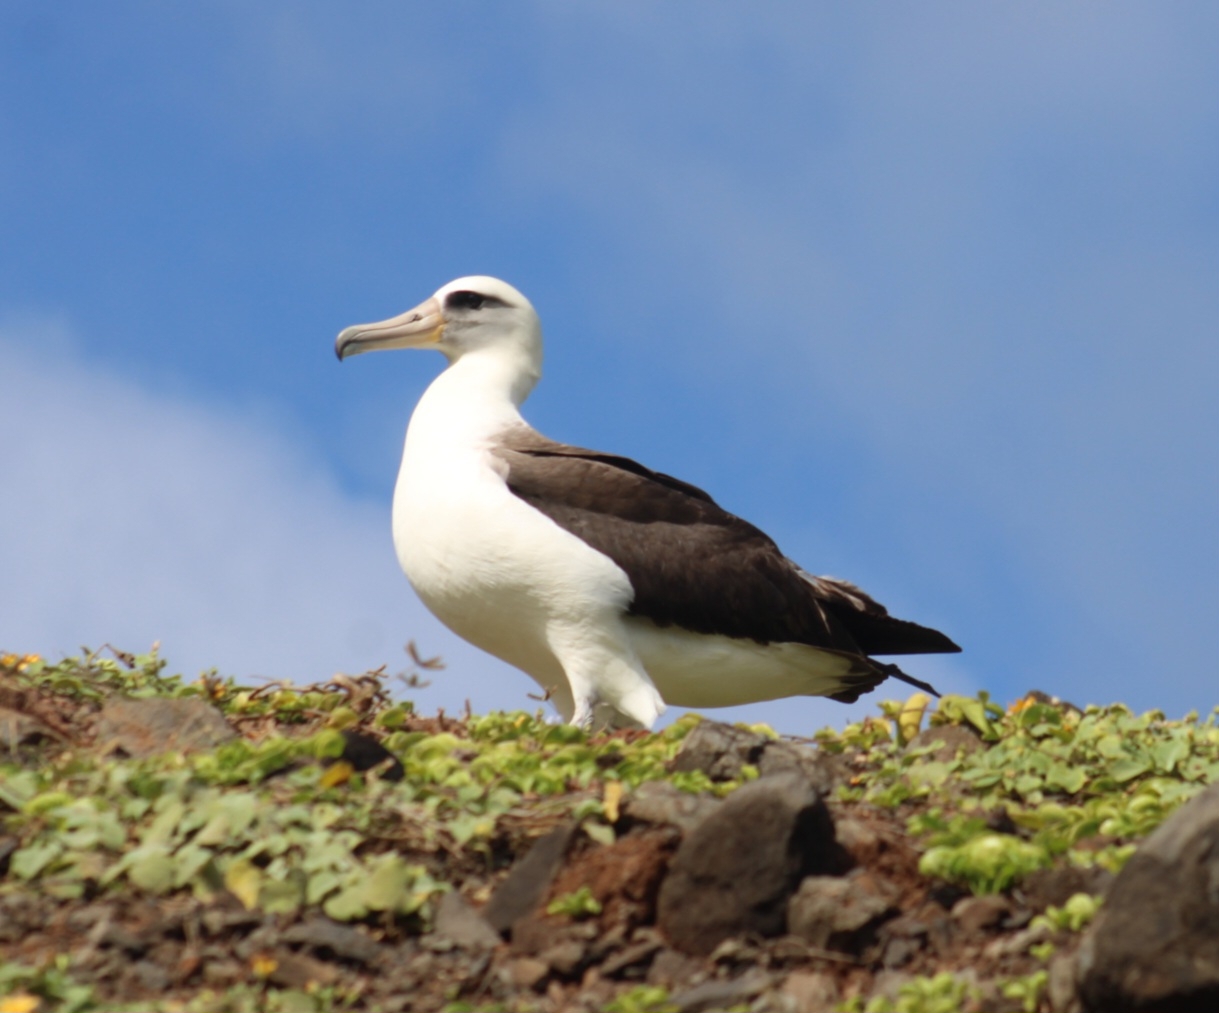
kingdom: Animalia
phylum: Chordata
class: Aves
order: Procellariiformes
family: Diomedeidae
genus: Phoebastria
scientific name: Phoebastria immutabilis
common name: Laysan albatross
